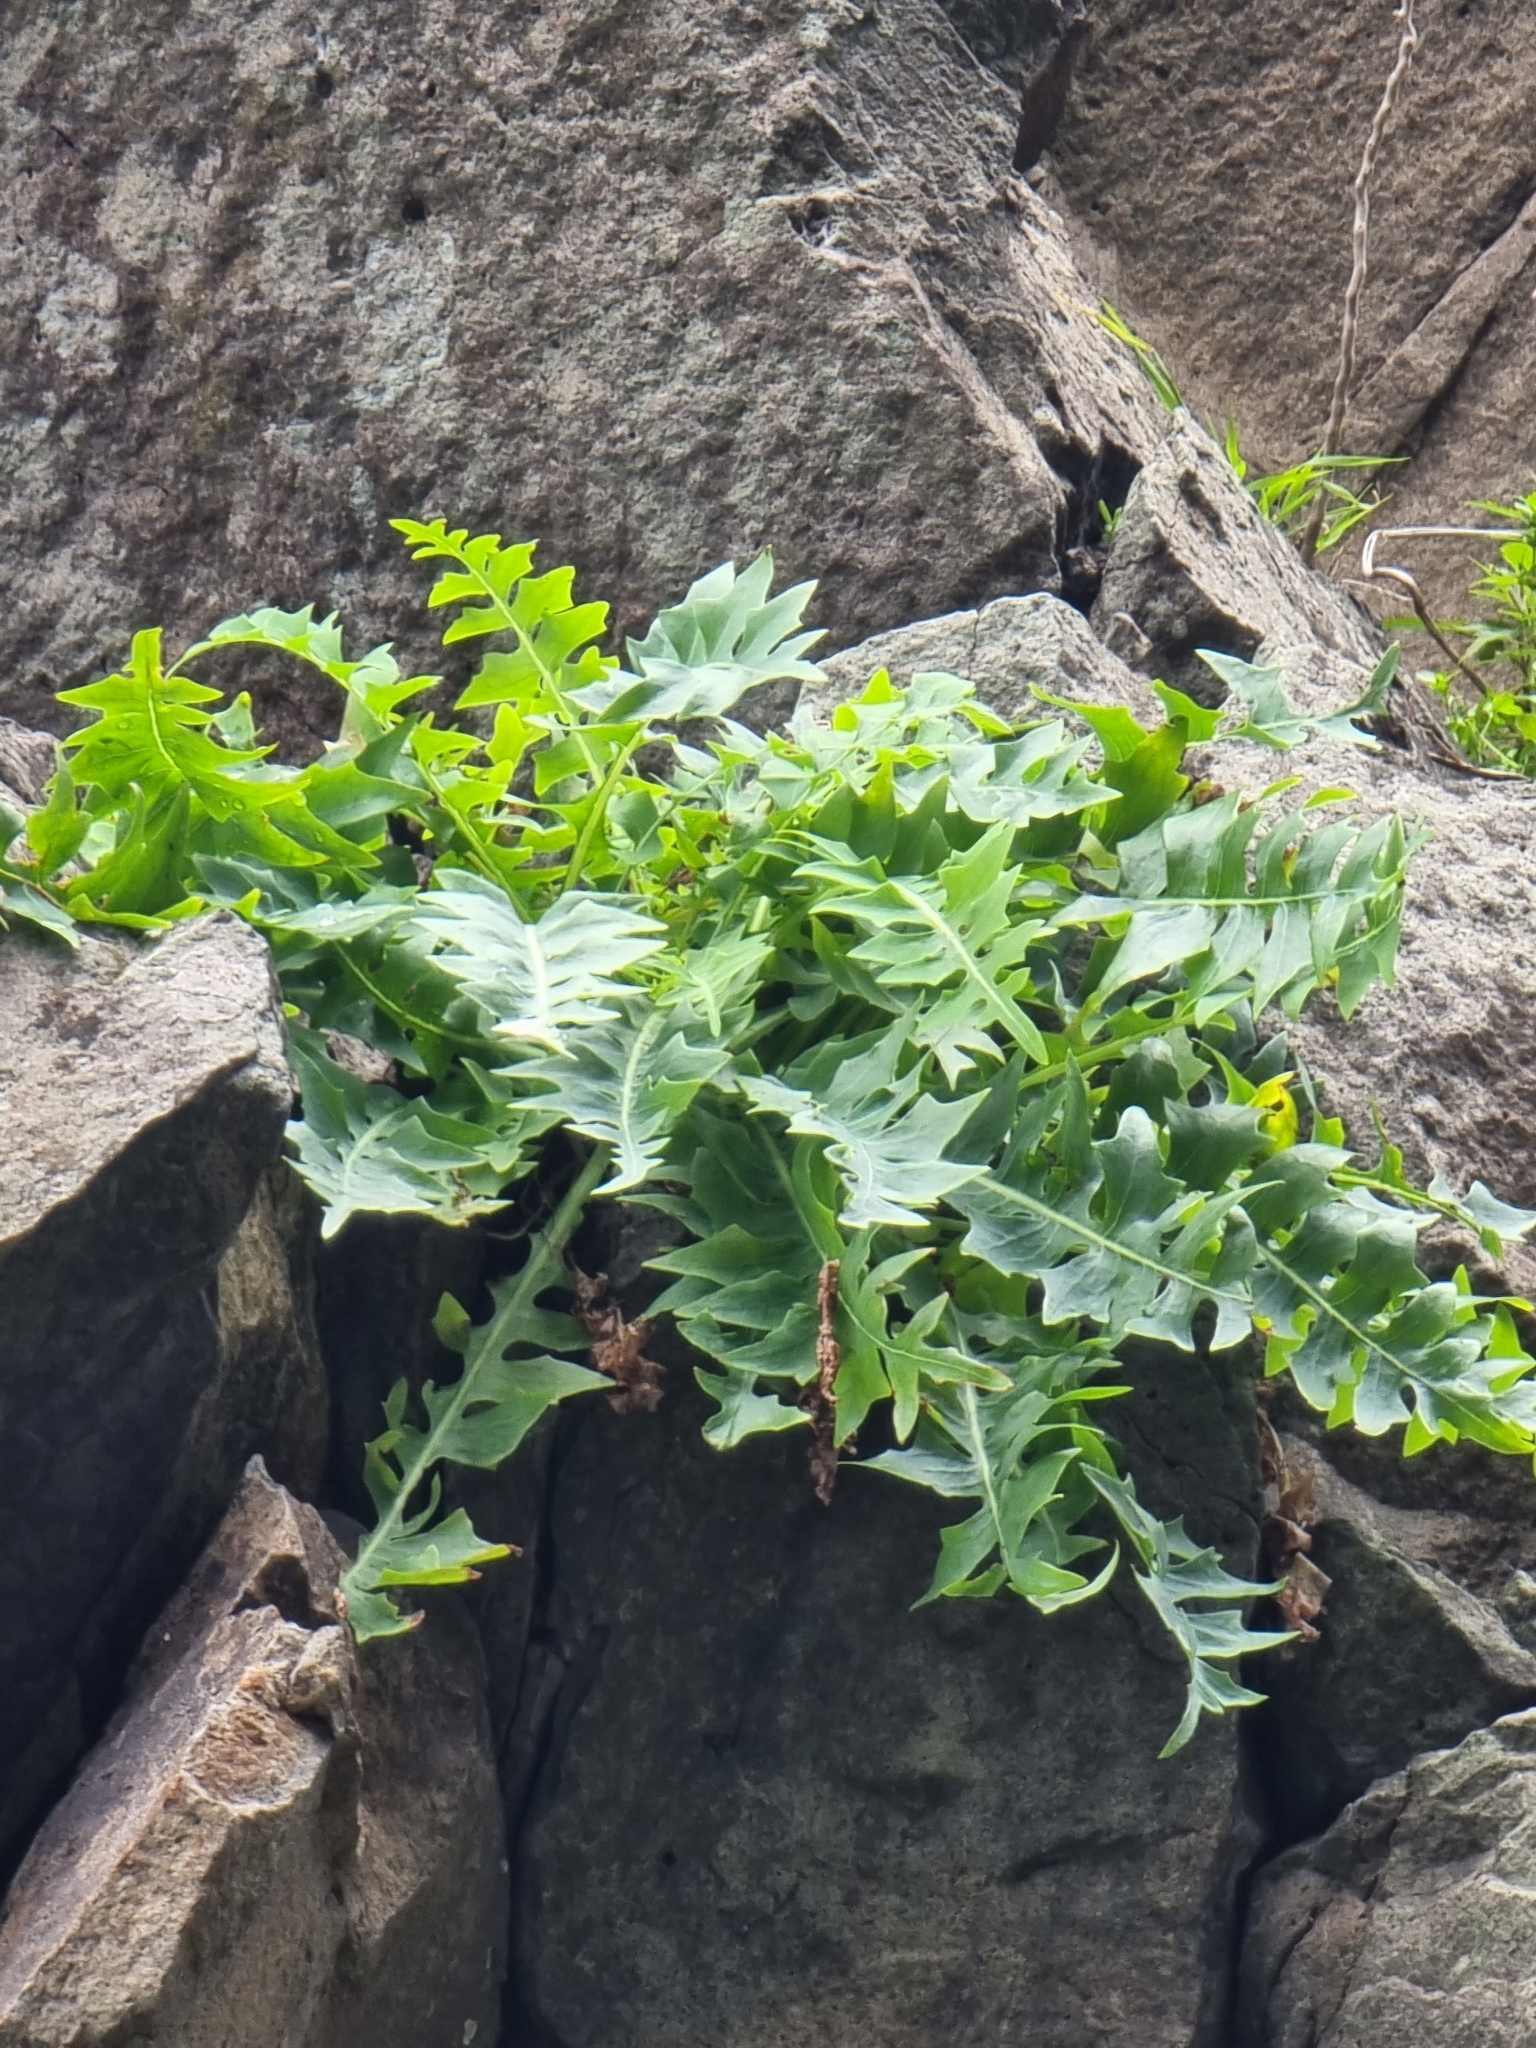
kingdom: Plantae
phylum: Tracheophyta
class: Magnoliopsida
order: Asterales
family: Asteraceae
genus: Sonchus
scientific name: Sonchus ustulatus
